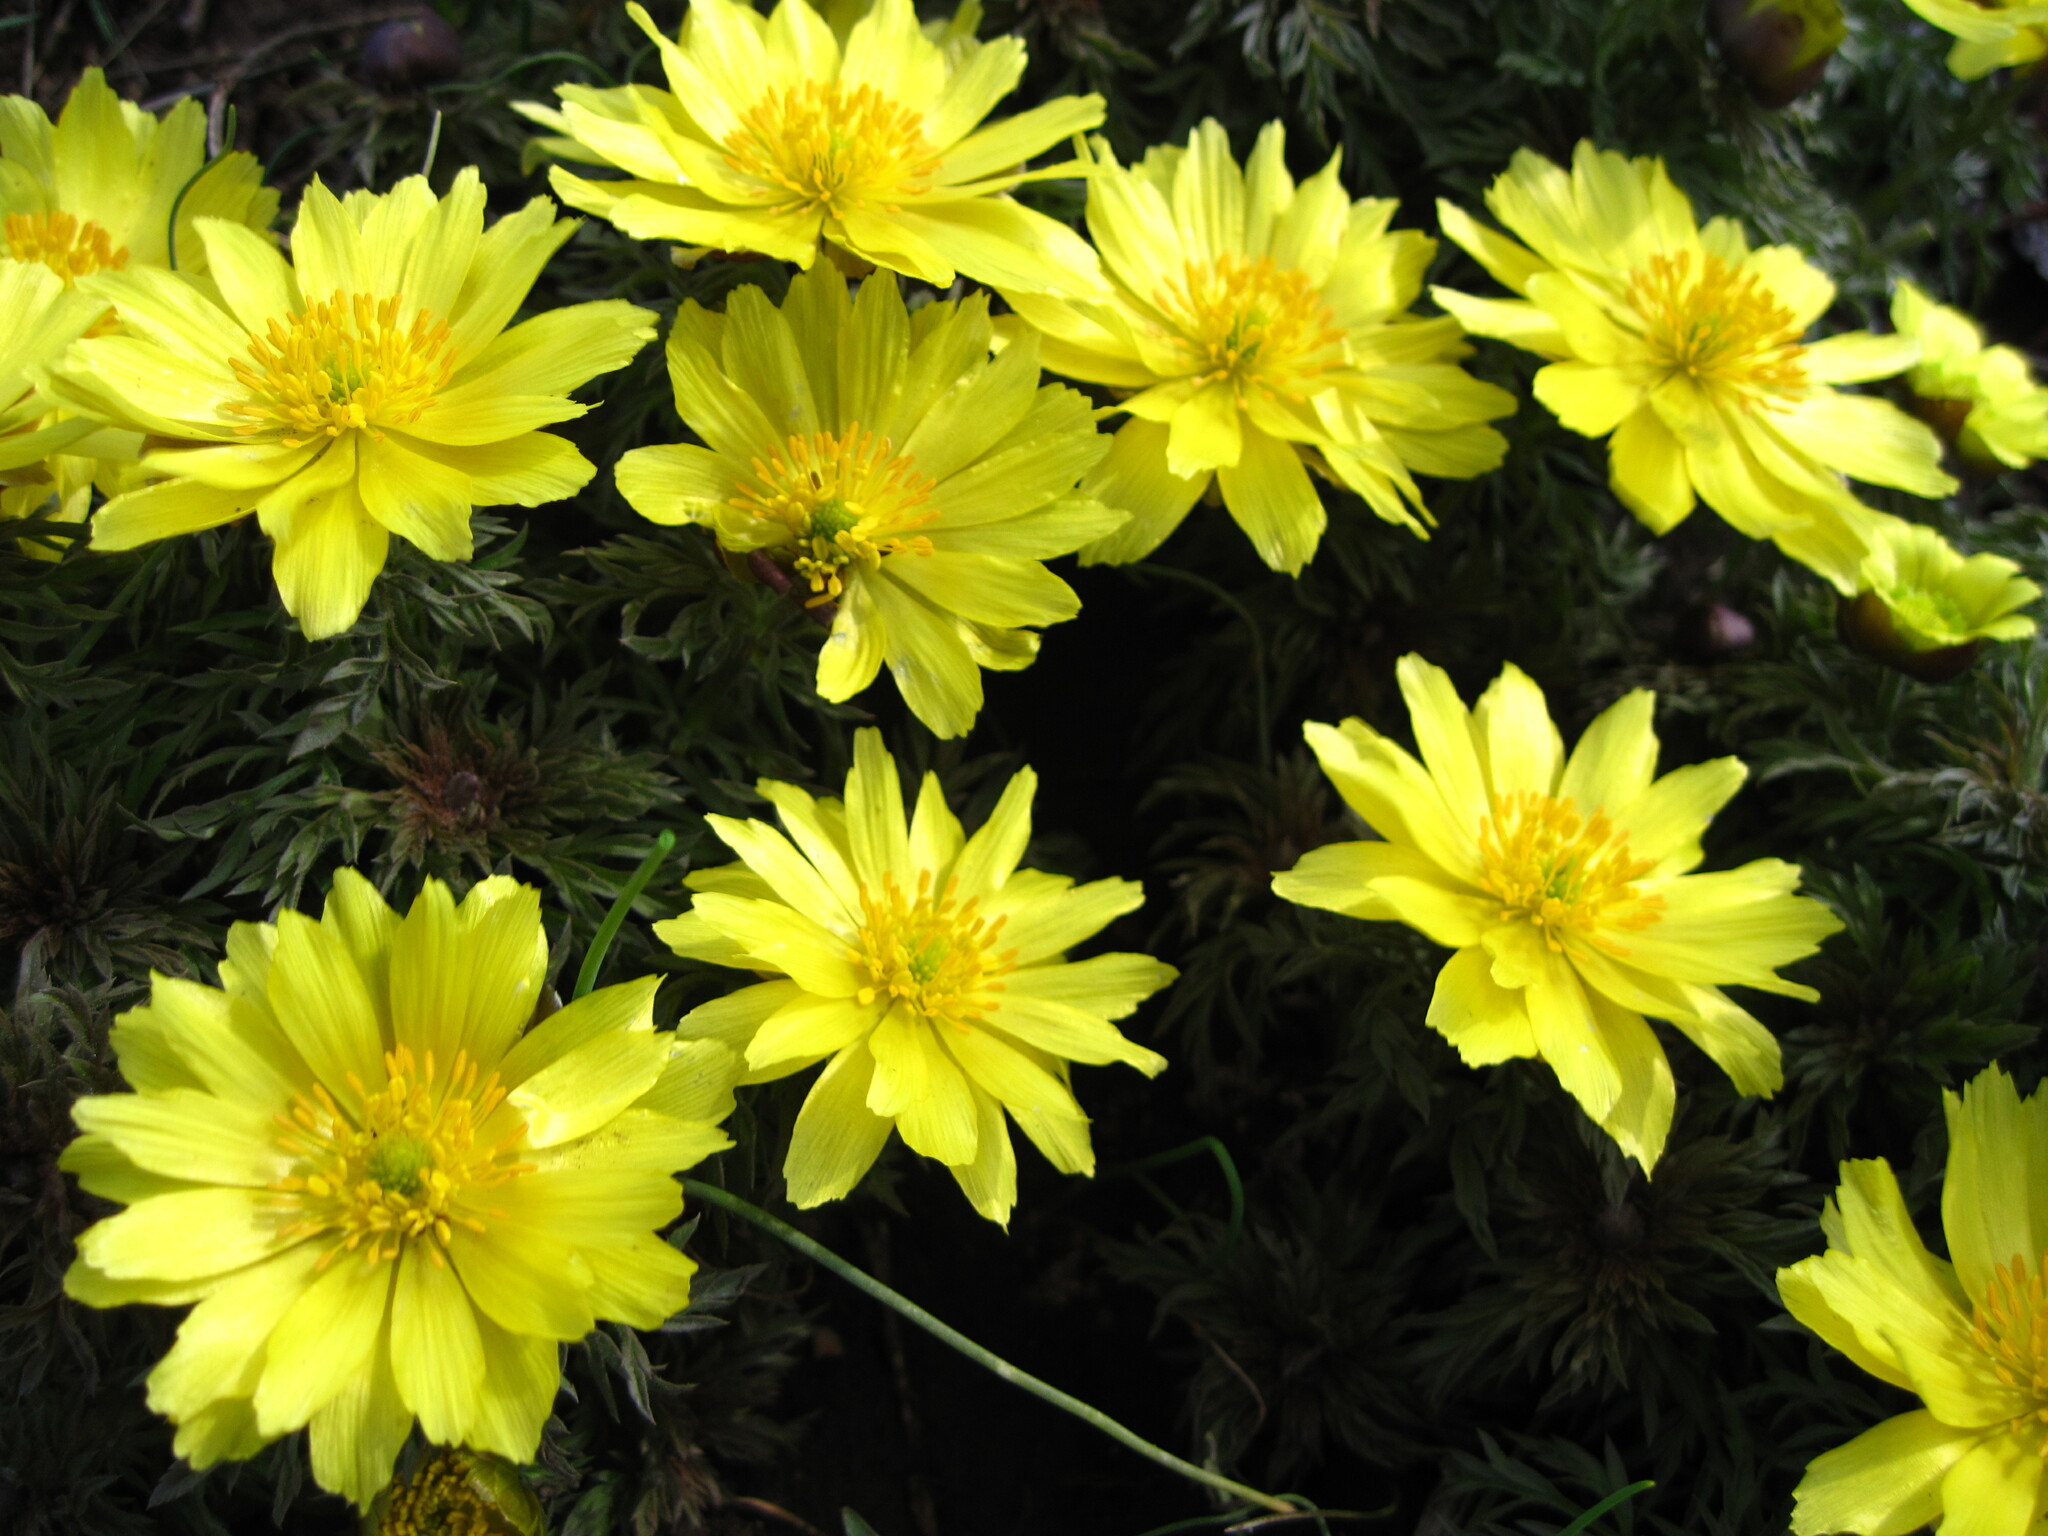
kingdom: Plantae
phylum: Tracheophyta
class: Magnoliopsida
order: Ranunculales
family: Ranunculaceae
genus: Adonis
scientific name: Adonis volgensis
